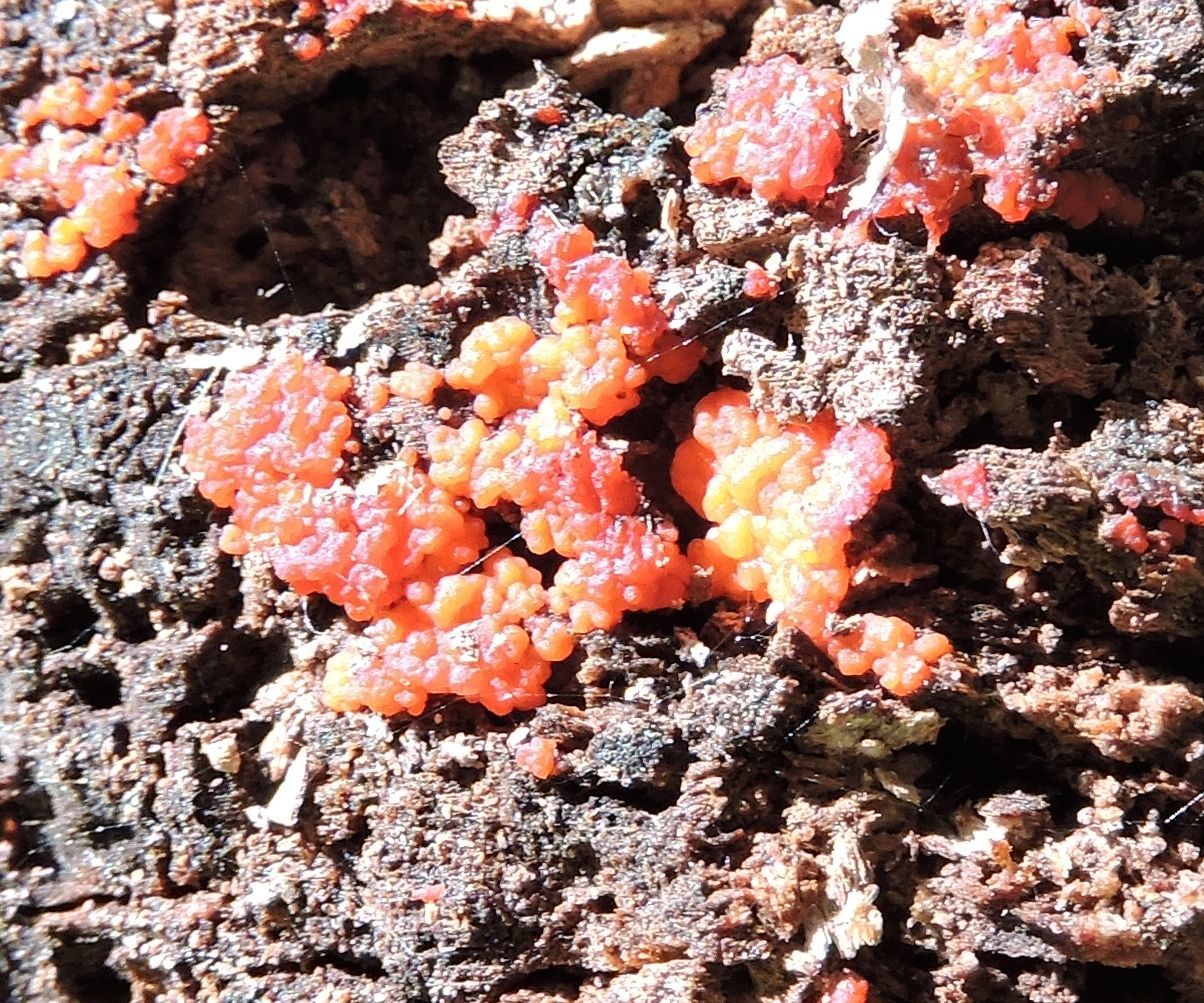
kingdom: Fungi
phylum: Basidiomycota
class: Dacrymycetes
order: Dacrymycetales
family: Dacrymycetaceae
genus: Dacrymyces
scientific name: Dacrymyces stillatus
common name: Common jelly spot
